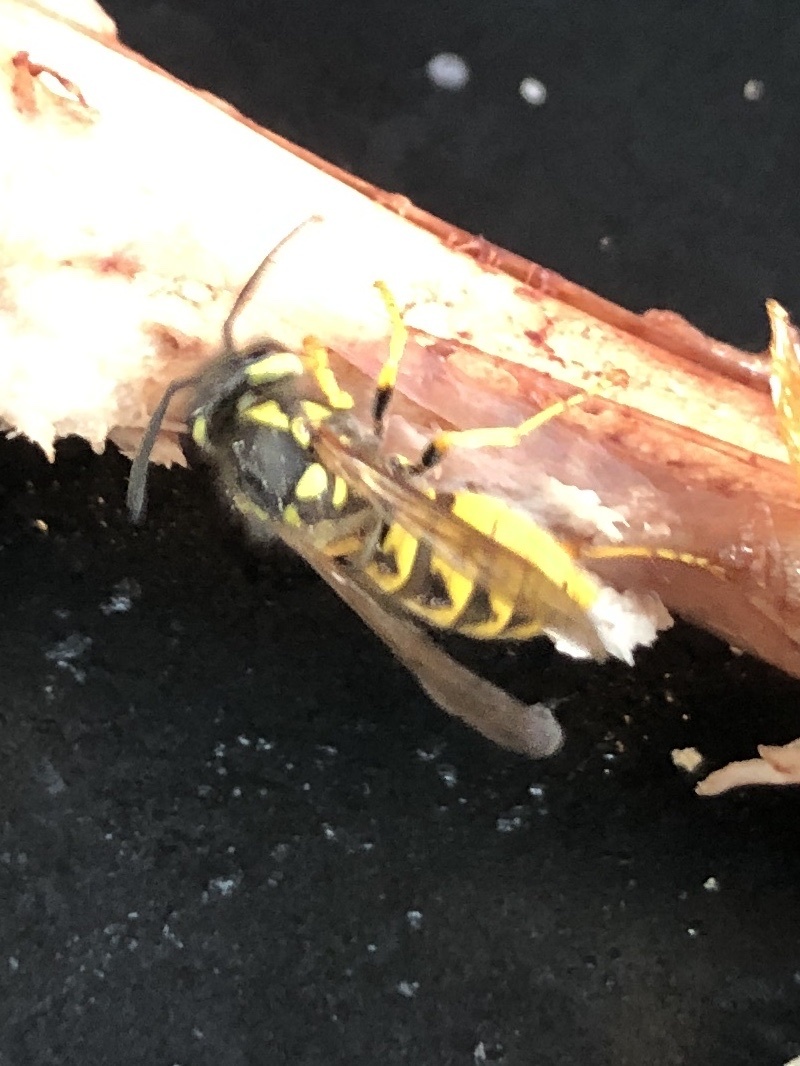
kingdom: Animalia
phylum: Arthropoda
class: Insecta
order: Hymenoptera
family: Vespidae
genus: Vespula
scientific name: Vespula germanica
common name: German wasp
